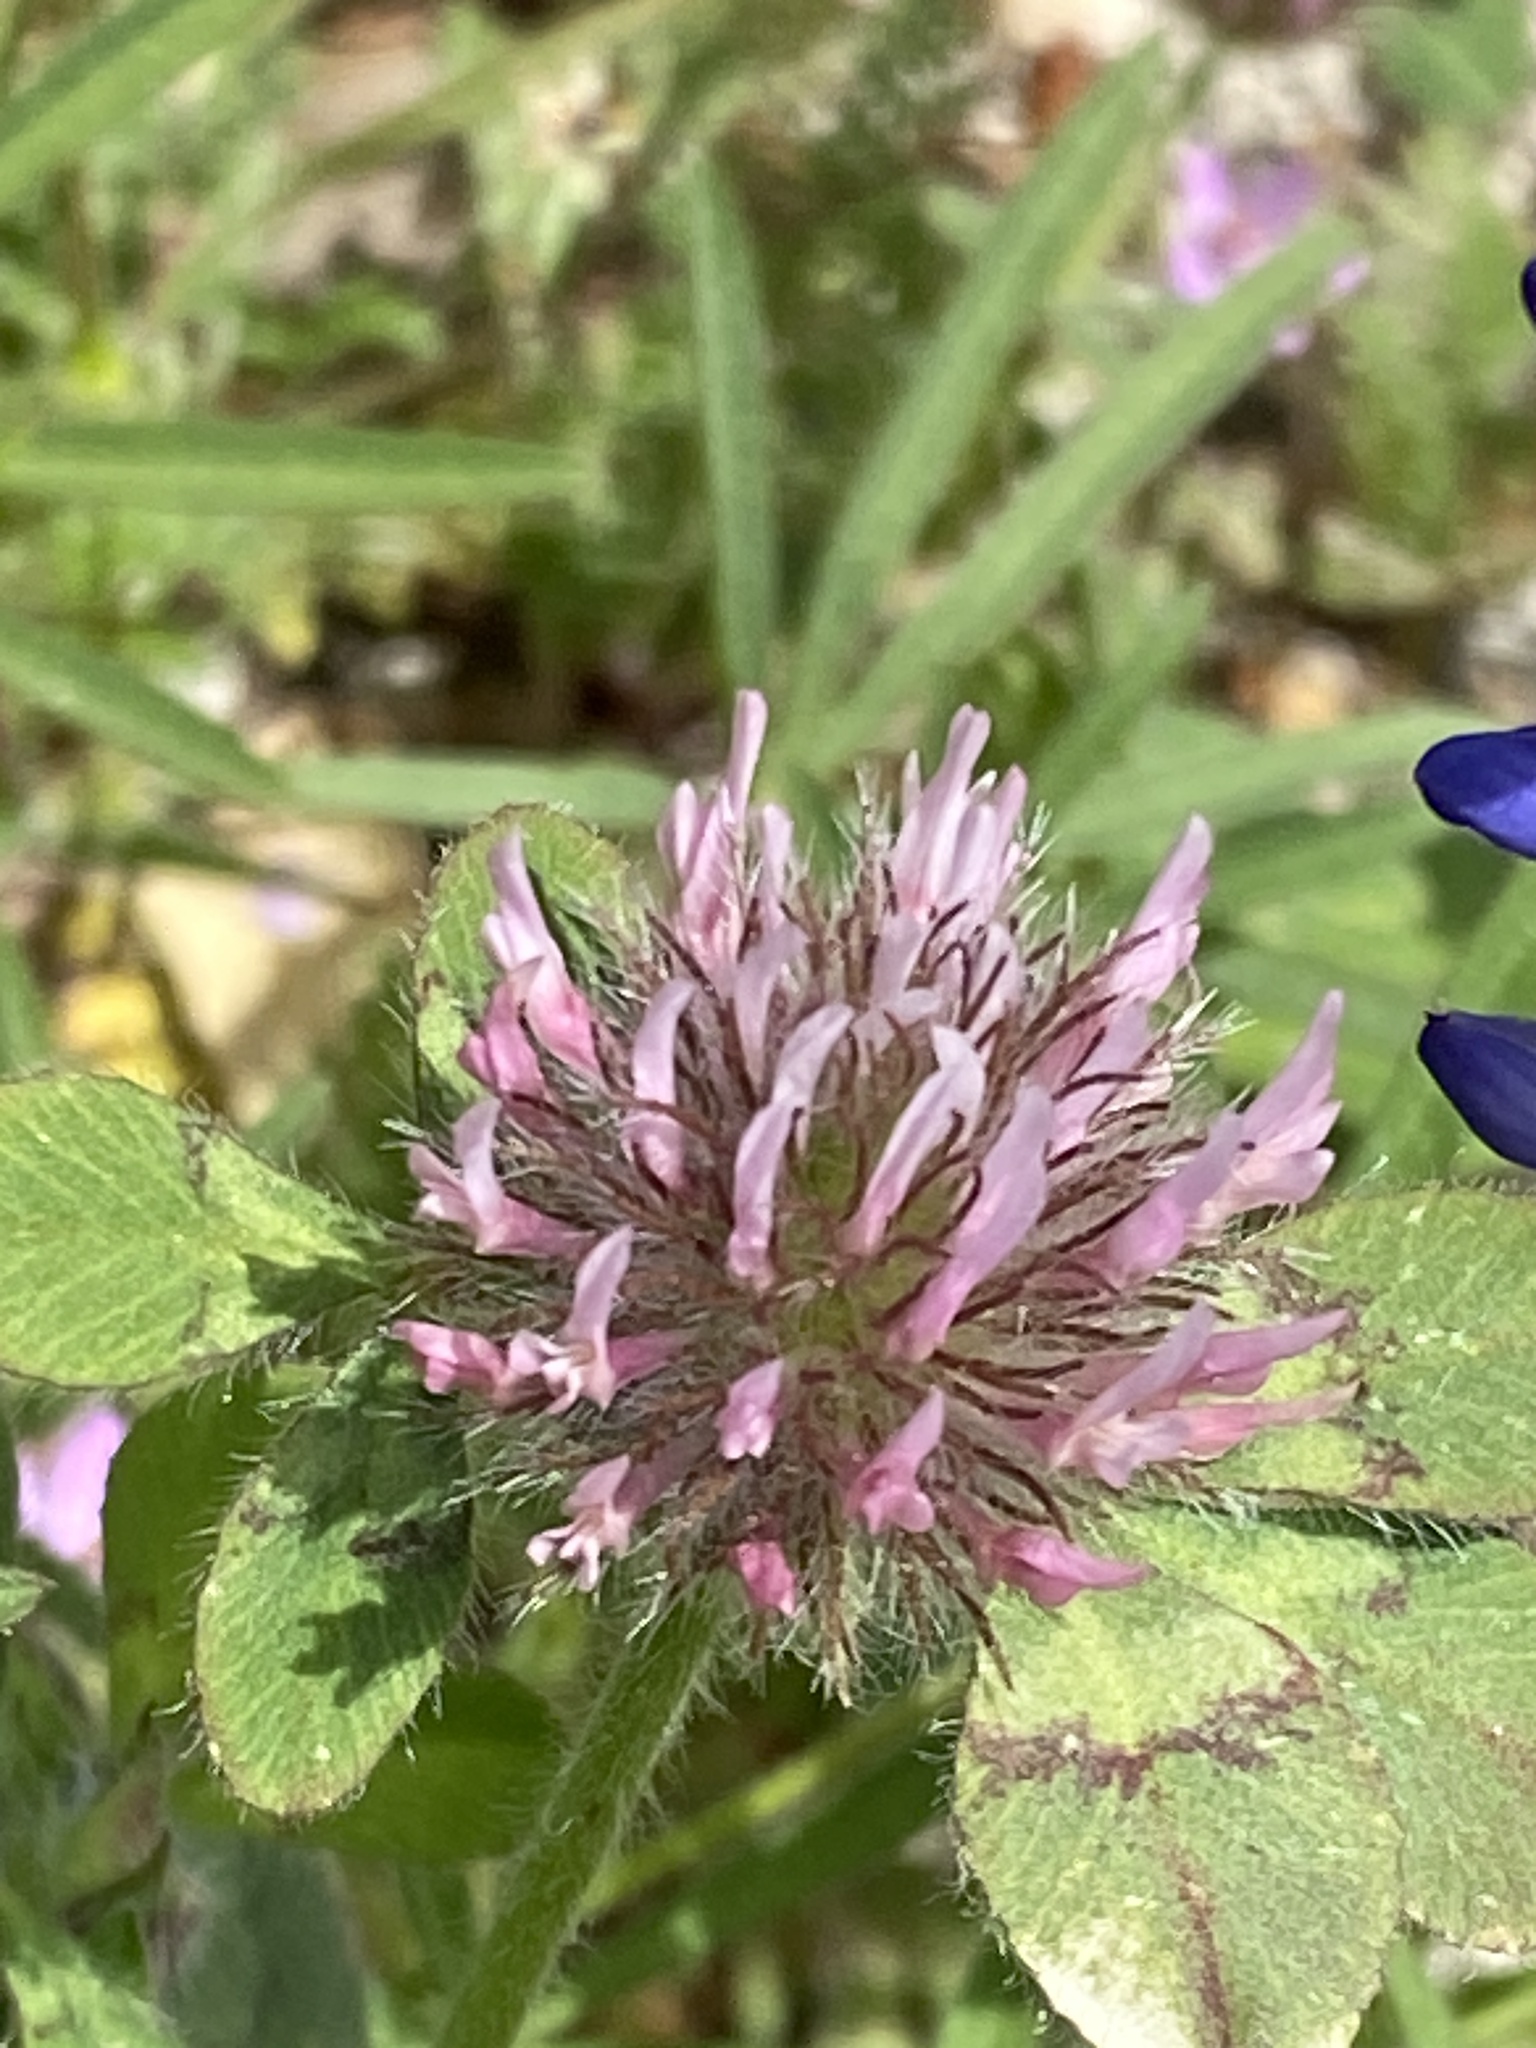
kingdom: Plantae
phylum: Tracheophyta
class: Magnoliopsida
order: Fabales
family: Fabaceae
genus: Trifolium
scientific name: Trifolium hirtum
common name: Rose clover
